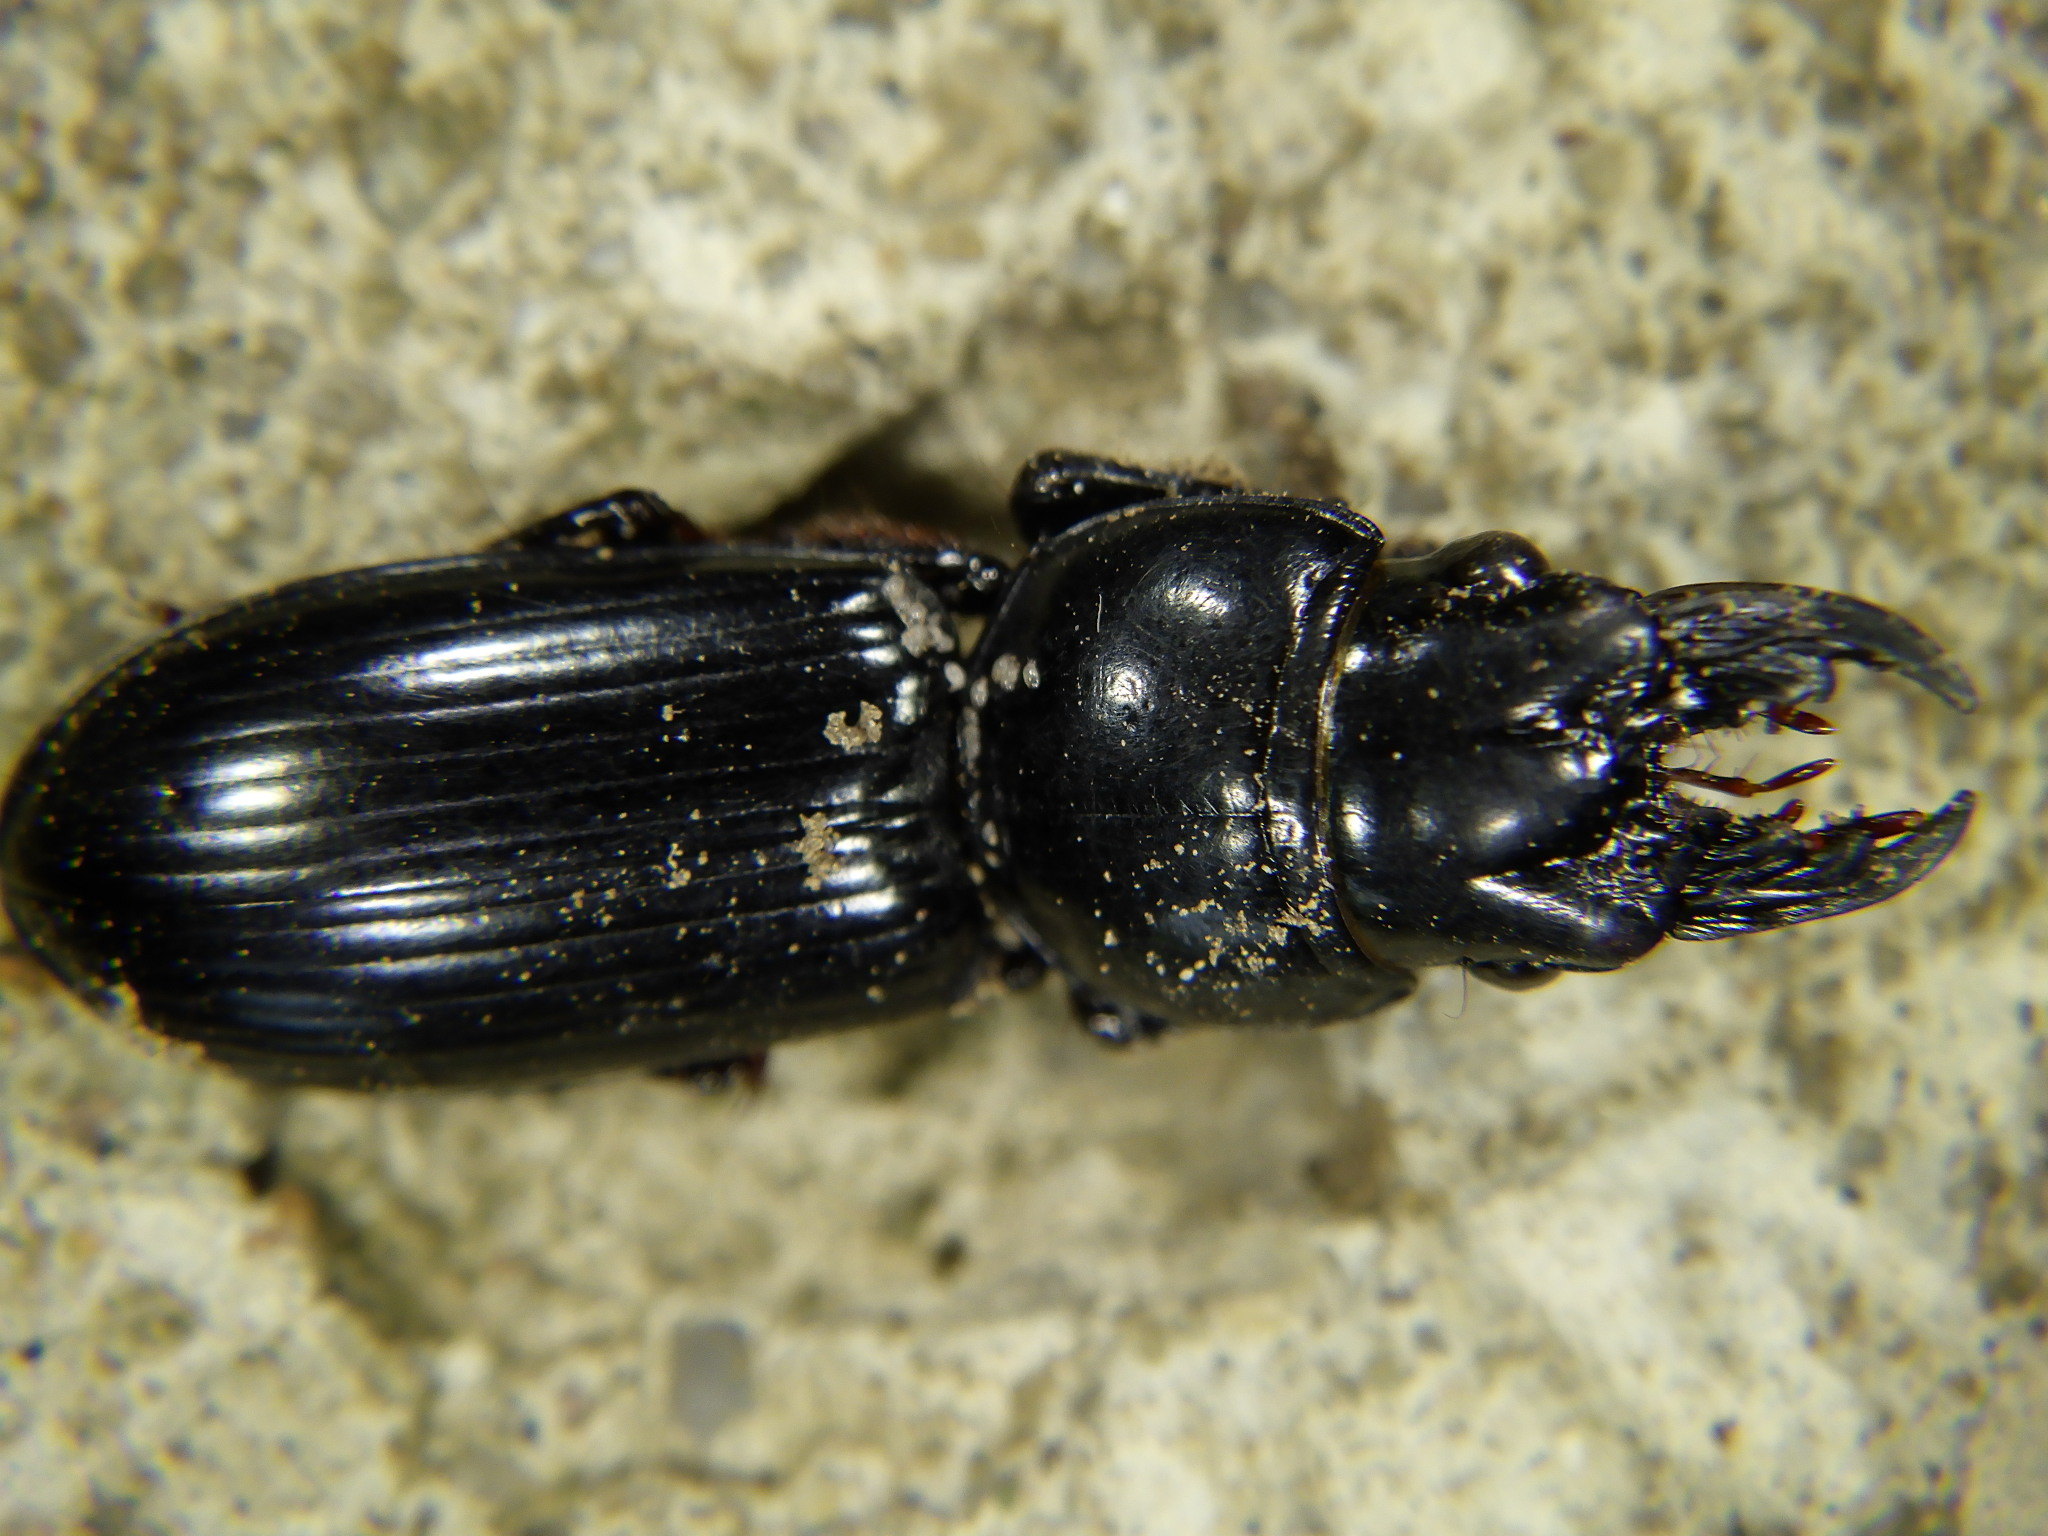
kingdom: Animalia
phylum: Arthropoda
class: Insecta
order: Coleoptera
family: Carabidae
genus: Scarites
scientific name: Scarites subterraneus
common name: Big-headed ground beetle
